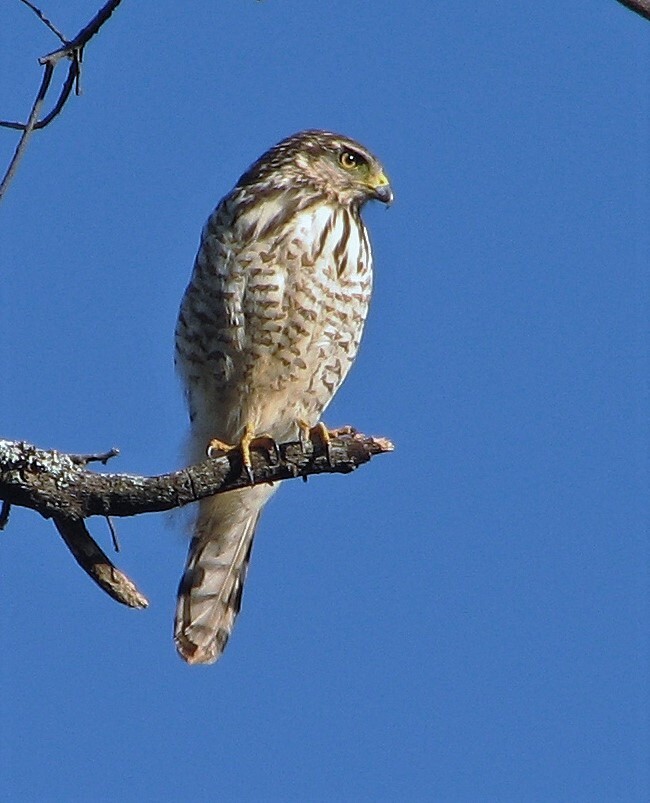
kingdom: Animalia
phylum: Chordata
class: Aves
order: Accipitriformes
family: Accipitridae
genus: Rupornis
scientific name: Rupornis magnirostris
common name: Roadside hawk
